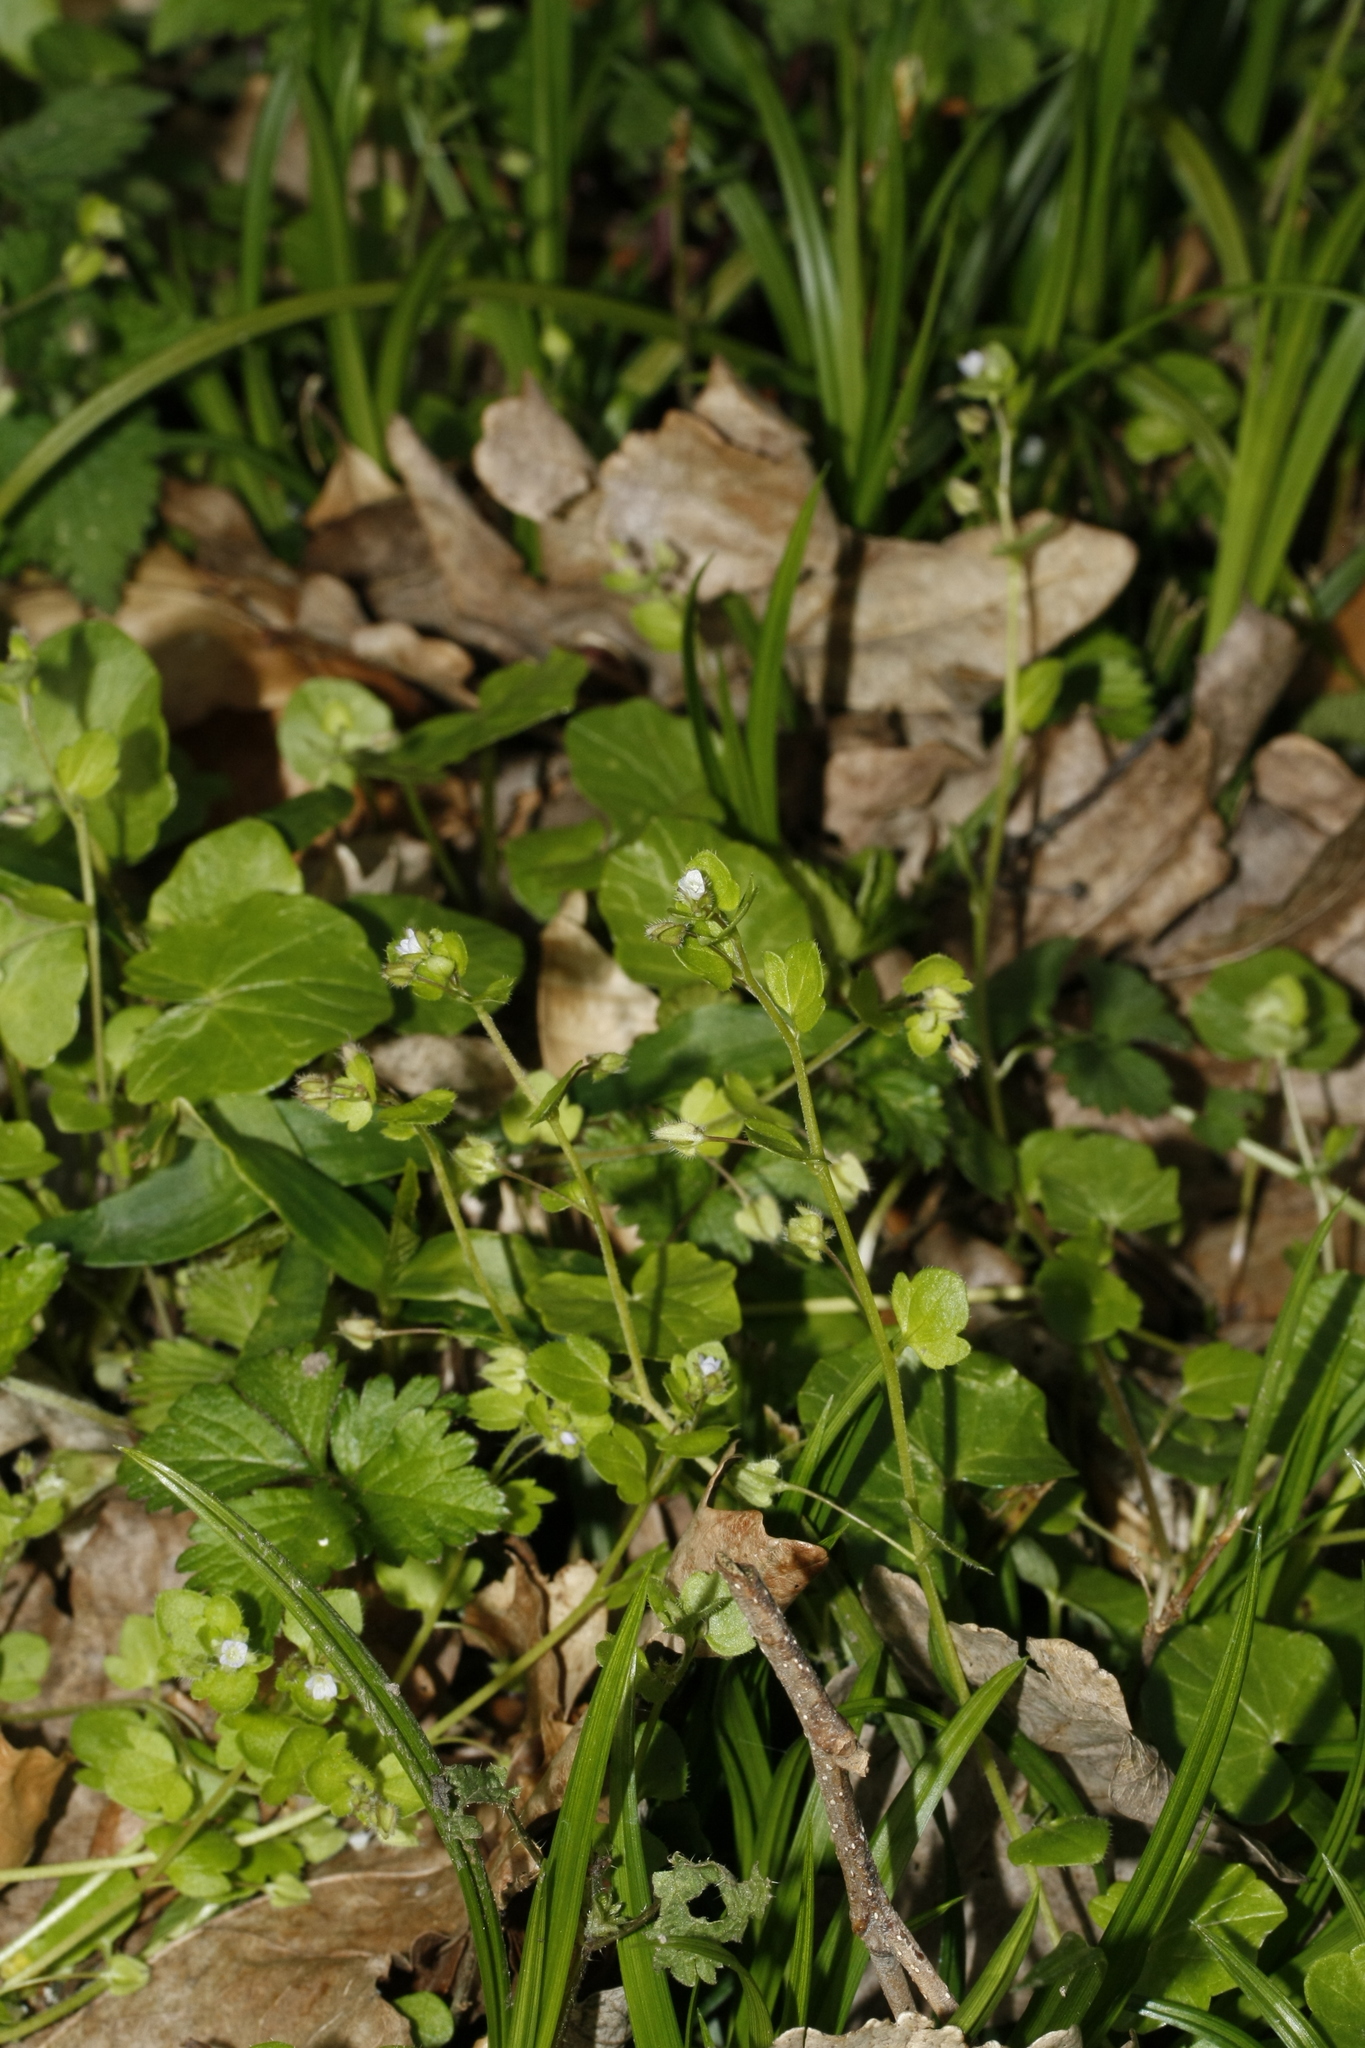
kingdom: Plantae
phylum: Tracheophyta
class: Magnoliopsida
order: Lamiales
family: Plantaginaceae
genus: Veronica
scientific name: Veronica hederifolia
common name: Ivy-leaved speedwell
